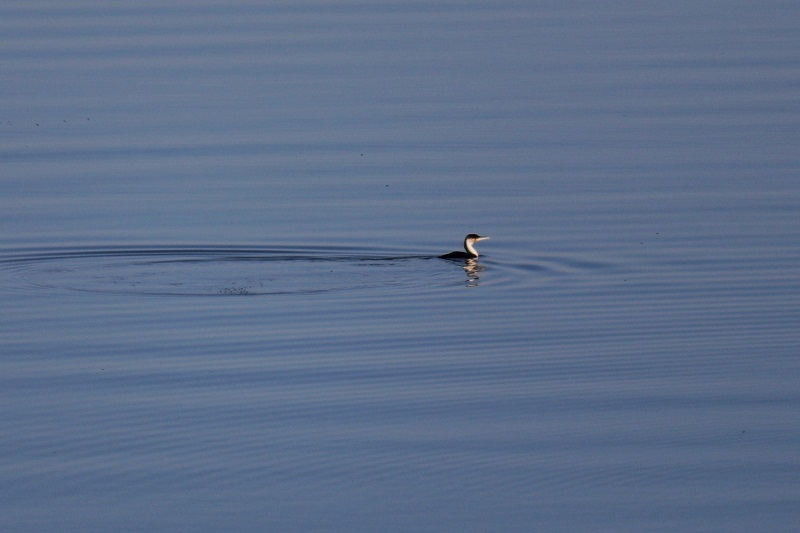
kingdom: Animalia
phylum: Chordata
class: Aves
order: Suliformes
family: Phalacrocoracidae
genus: Phalacrocorax
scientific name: Phalacrocorax carbo
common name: Great cormorant
